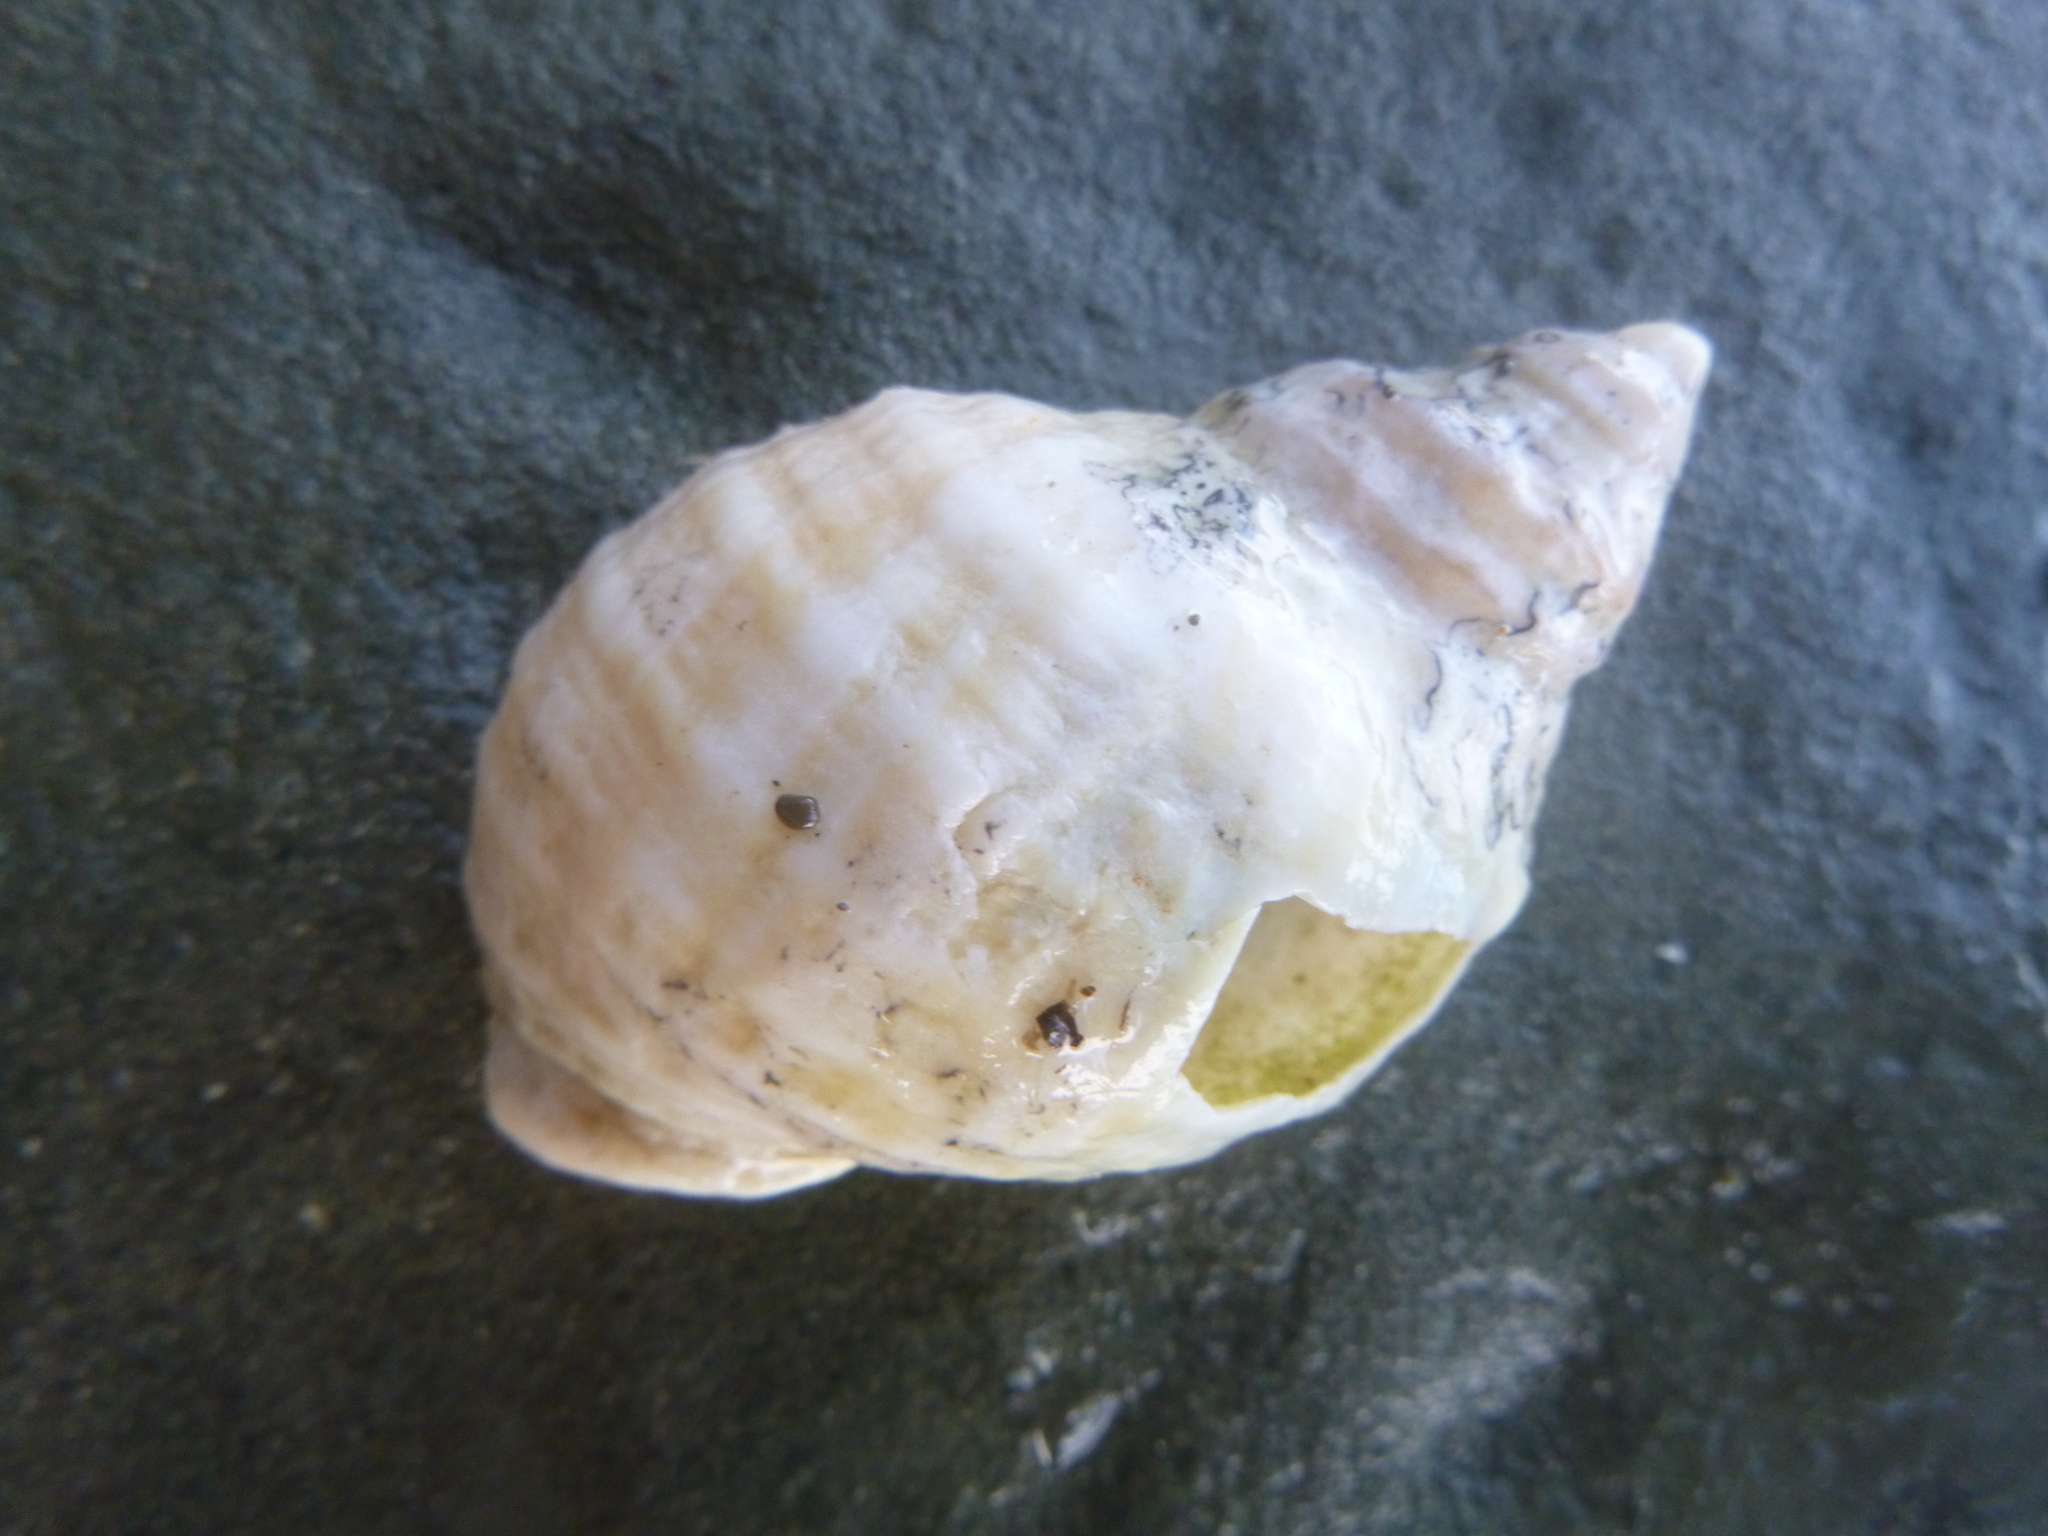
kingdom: Animalia
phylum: Mollusca
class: Gastropoda
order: Neogastropoda
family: Muricidae
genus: Dicathais
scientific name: Dicathais orbita
